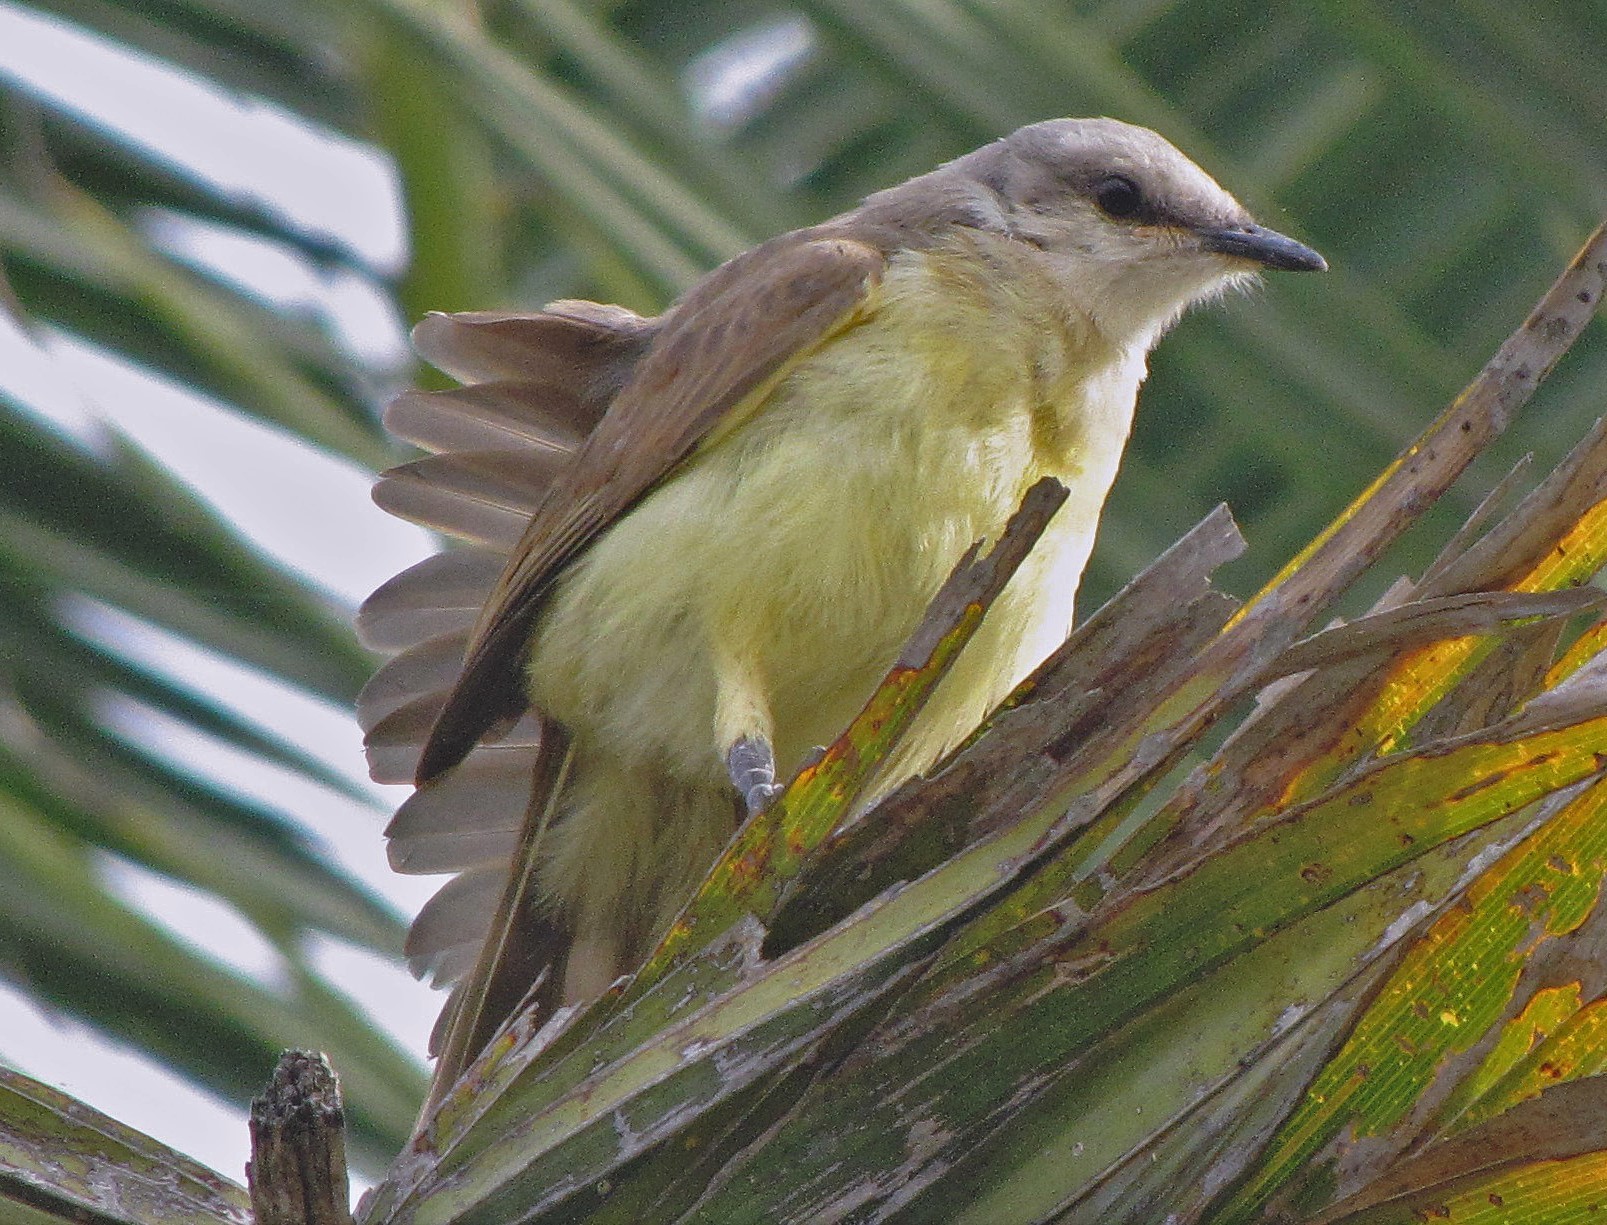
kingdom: Animalia
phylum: Chordata
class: Aves
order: Passeriformes
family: Tyrannidae
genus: Machetornis
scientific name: Machetornis rixosa
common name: Cattle tyrant
